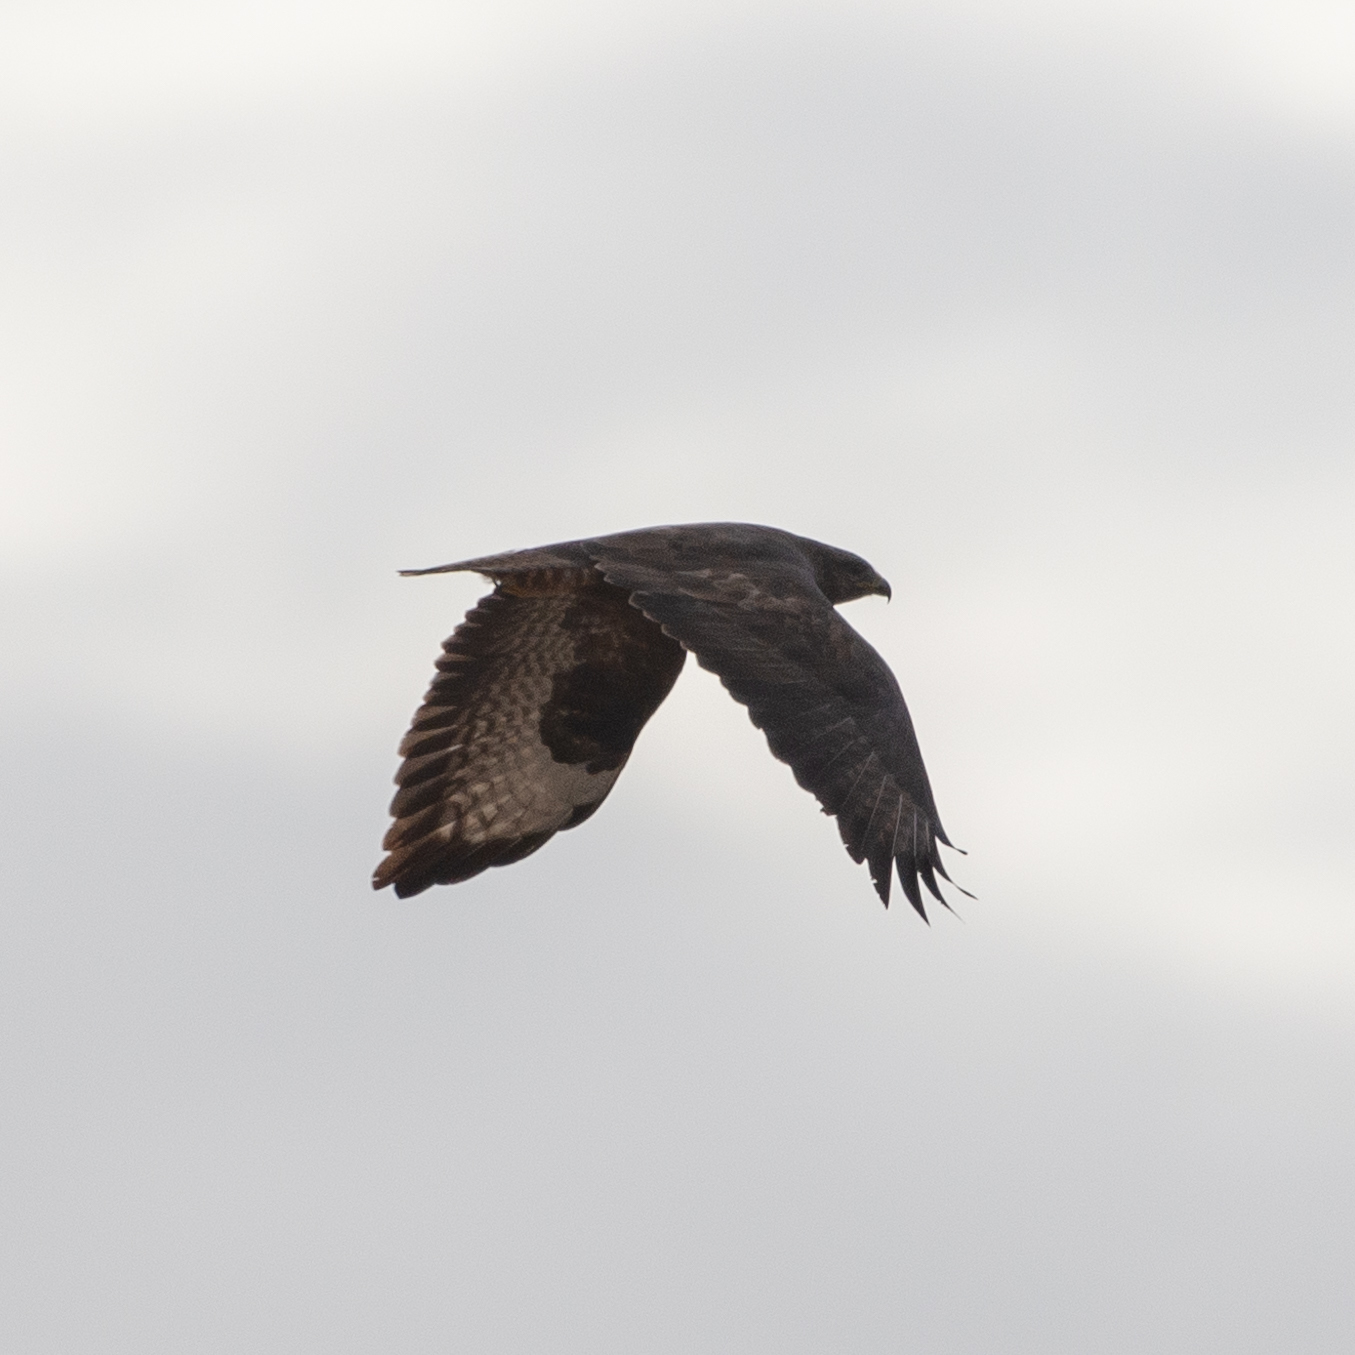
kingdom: Animalia
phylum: Chordata
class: Aves
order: Accipitriformes
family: Accipitridae
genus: Buteo
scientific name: Buteo buteo
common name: Common buzzard
